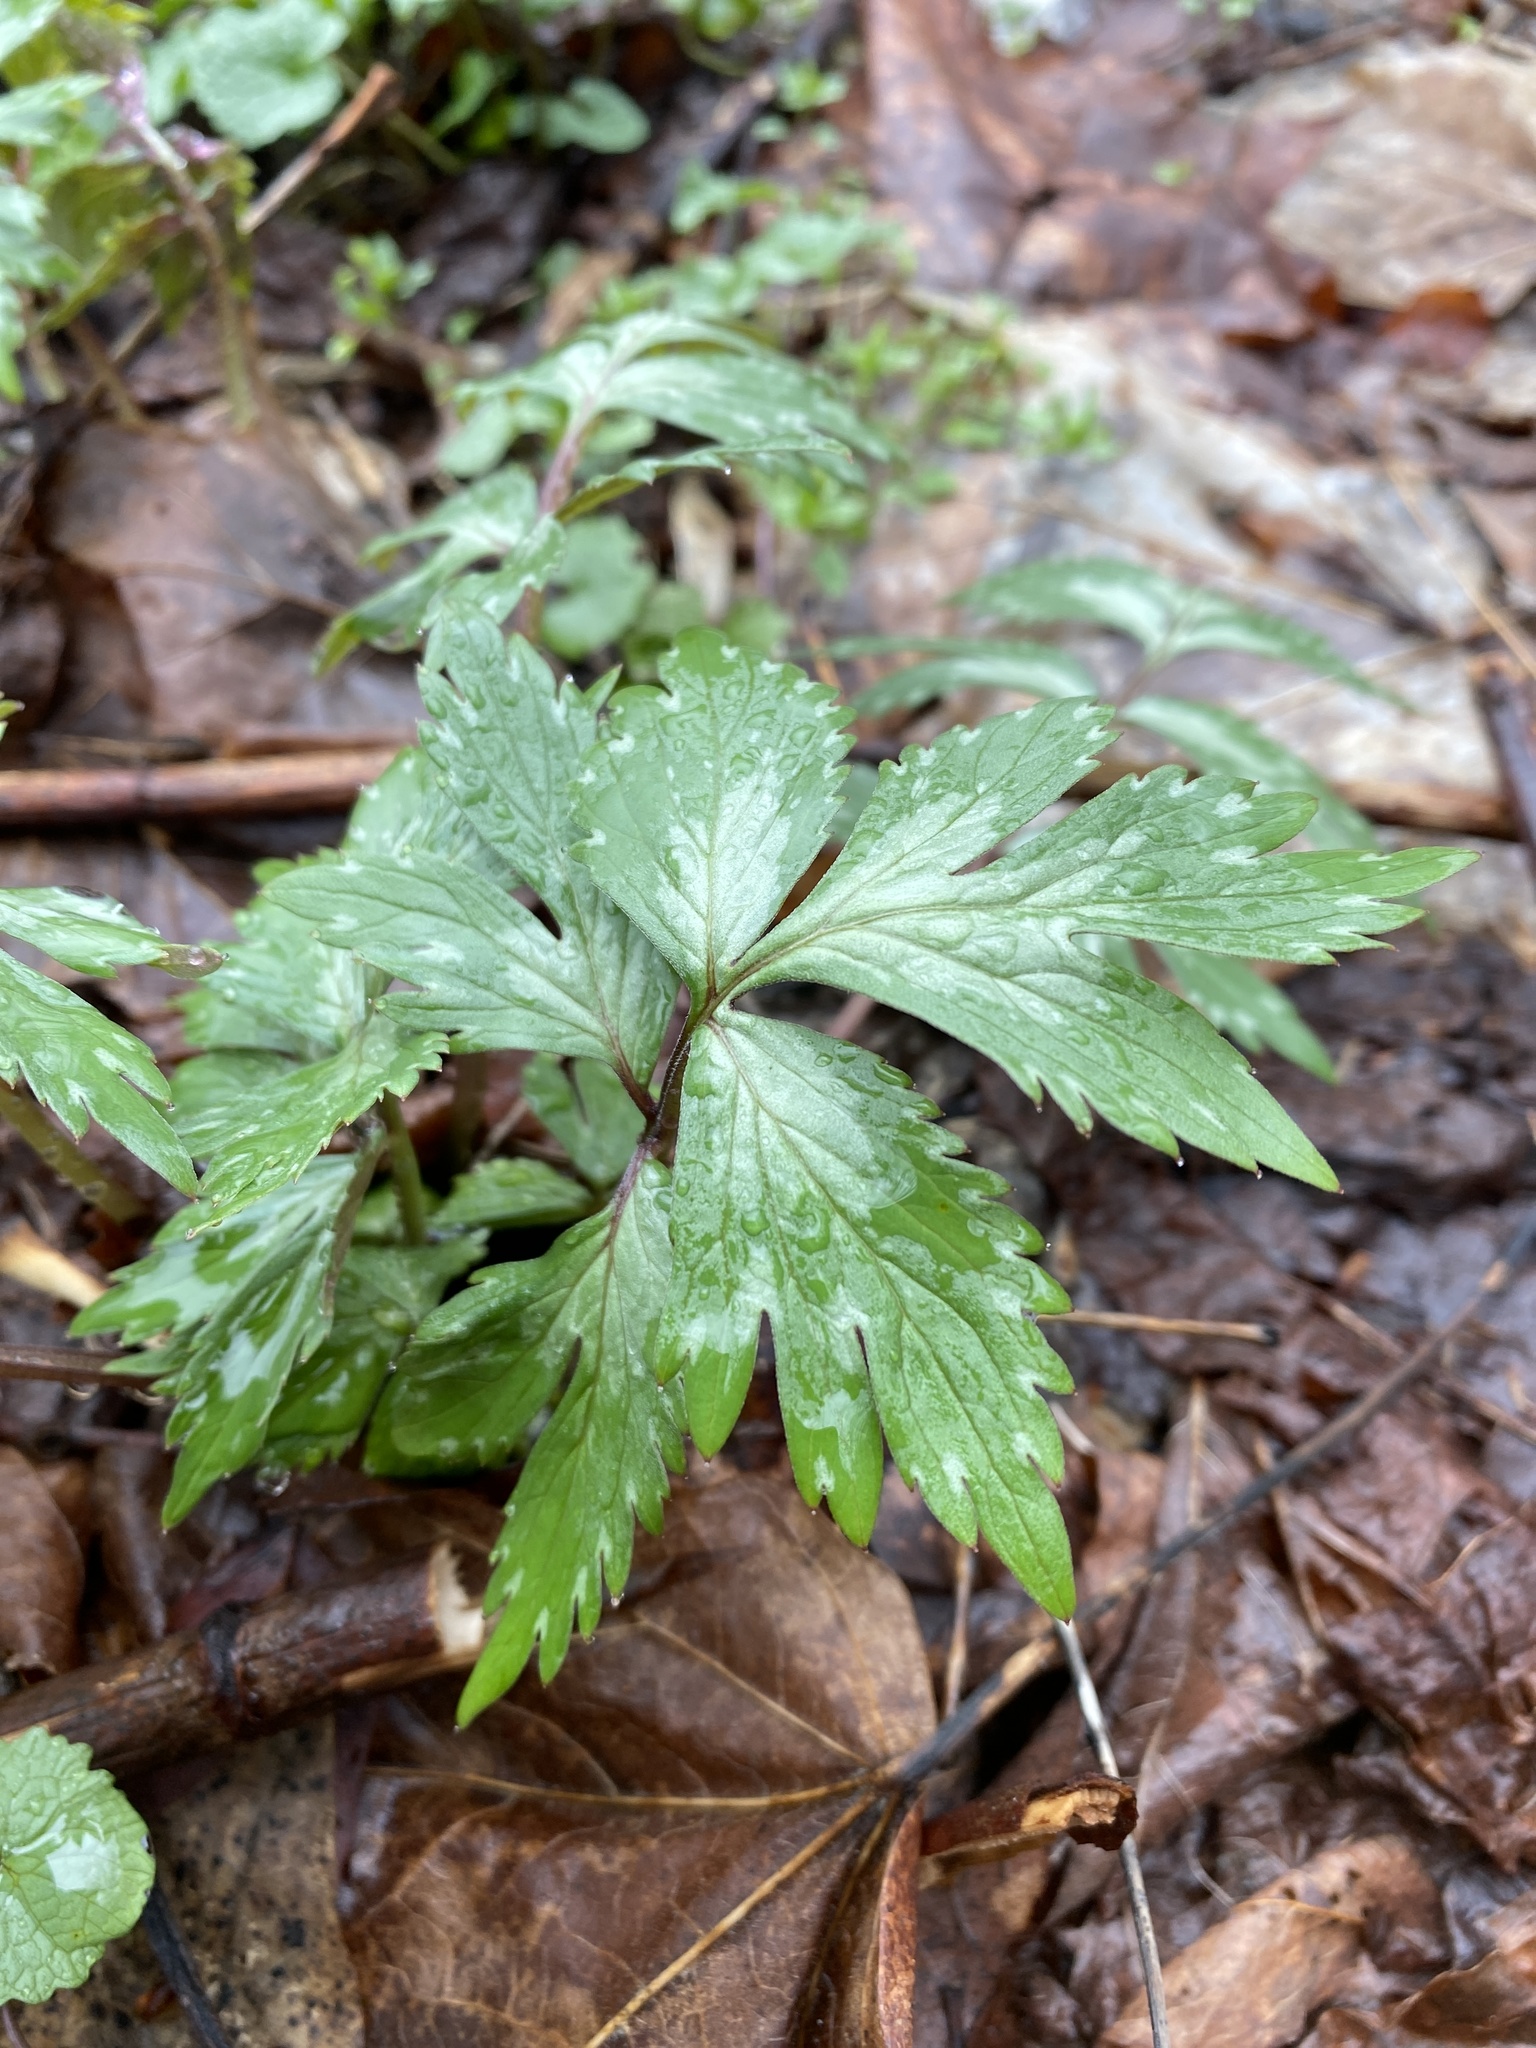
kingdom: Plantae
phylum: Tracheophyta
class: Magnoliopsida
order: Boraginales
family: Hydrophyllaceae
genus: Hydrophyllum
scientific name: Hydrophyllum virginianum
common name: Virginia waterleaf
